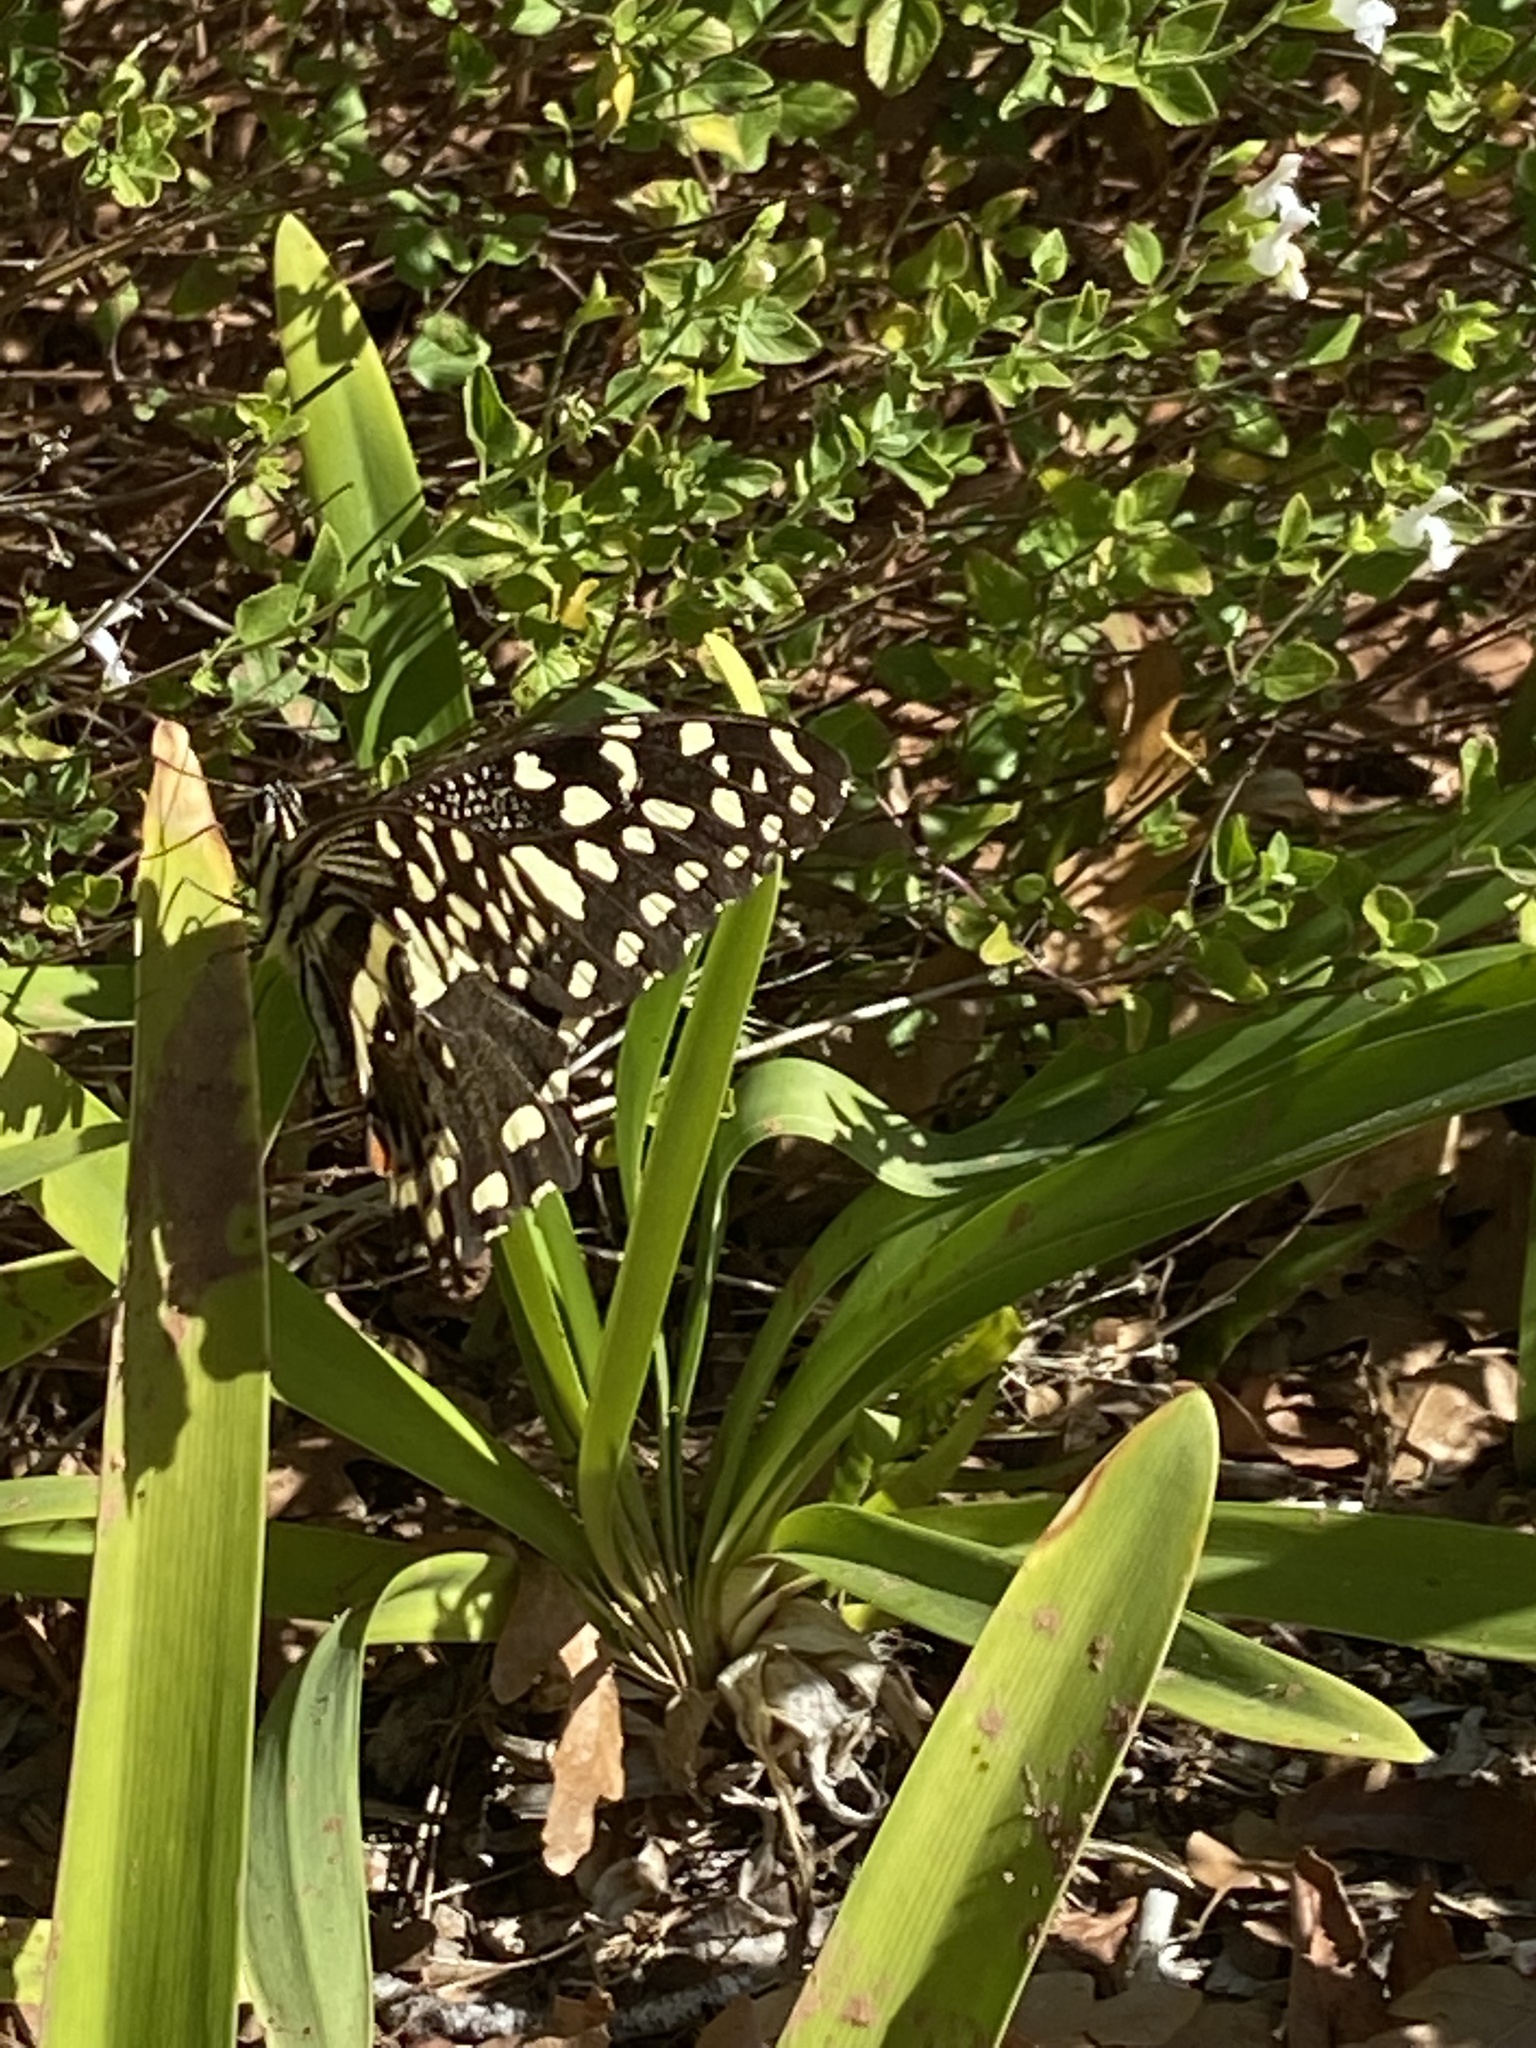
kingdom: Animalia
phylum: Arthropoda
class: Insecta
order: Lepidoptera
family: Papilionidae
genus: Papilio
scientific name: Papilio demodocus
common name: Christmas butterfly
